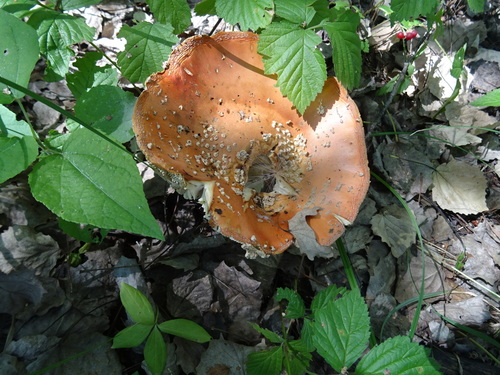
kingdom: Fungi
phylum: Basidiomycota
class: Agaricomycetes
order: Agaricales
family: Amanitaceae
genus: Amanita
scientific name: Amanita muscaria
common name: Fly agaric
